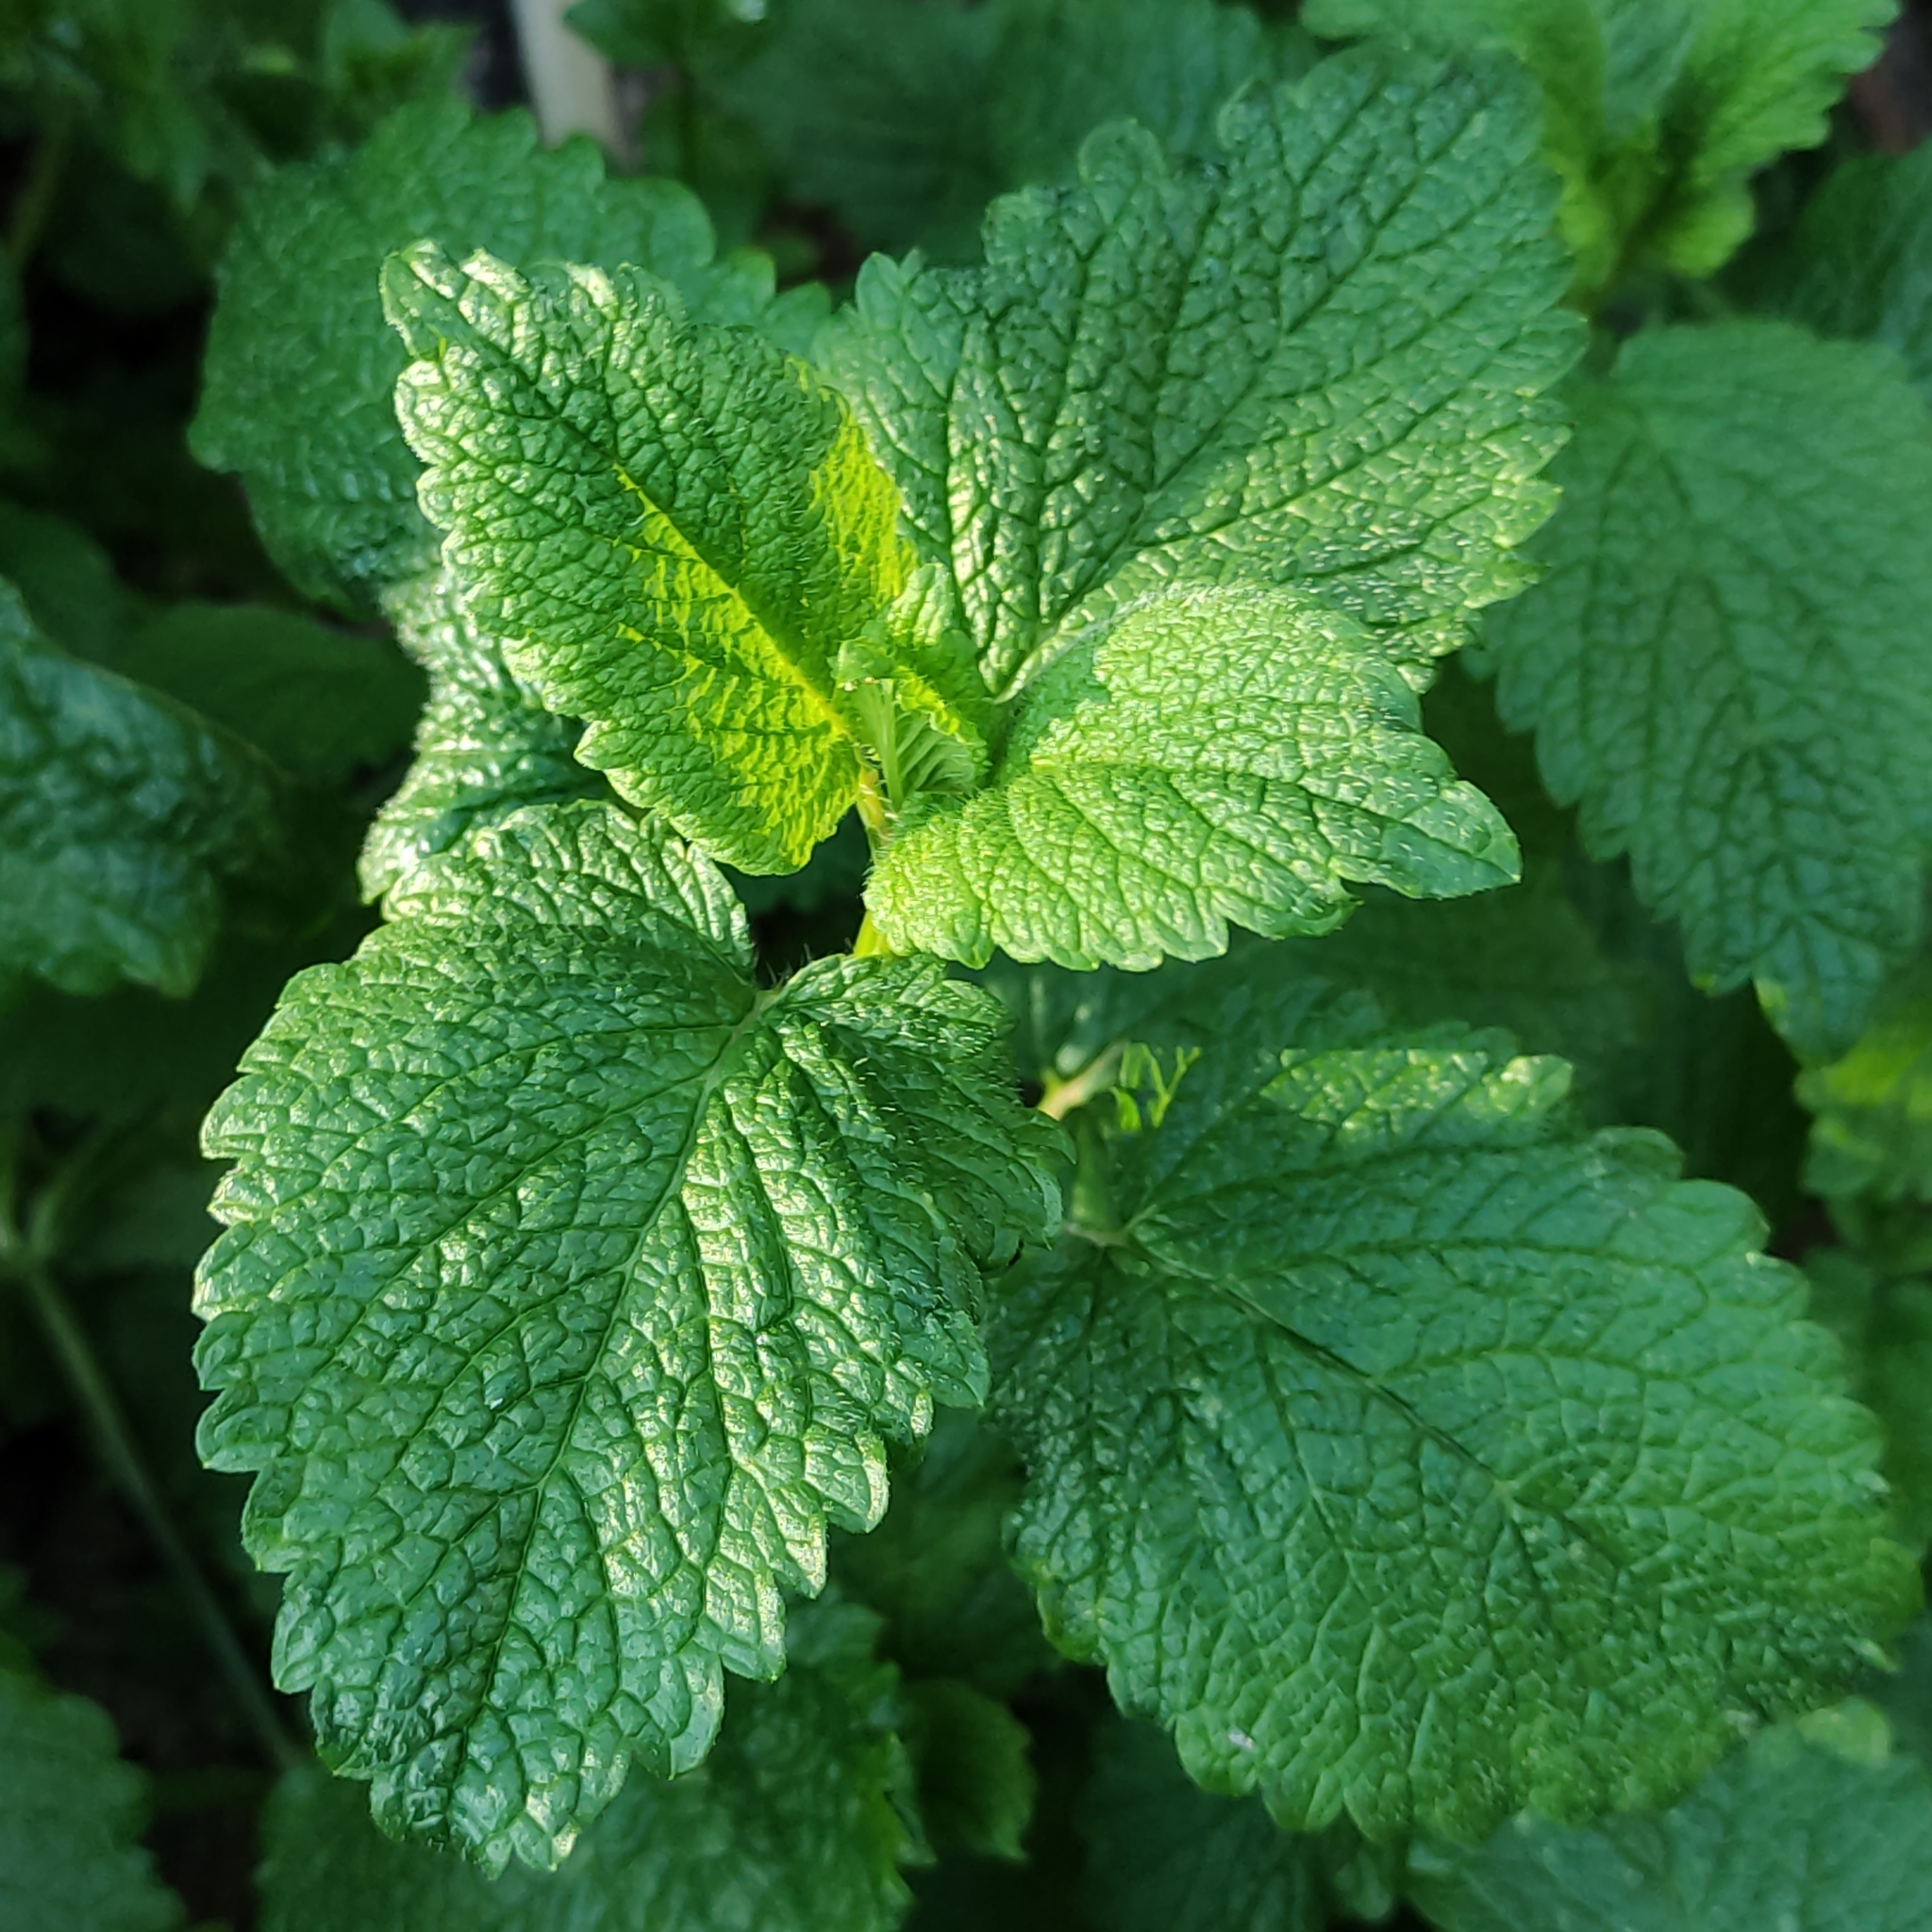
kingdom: Plantae
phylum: Tracheophyta
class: Magnoliopsida
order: Lamiales
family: Lamiaceae
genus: Melissa
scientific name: Melissa officinalis
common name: Balm
